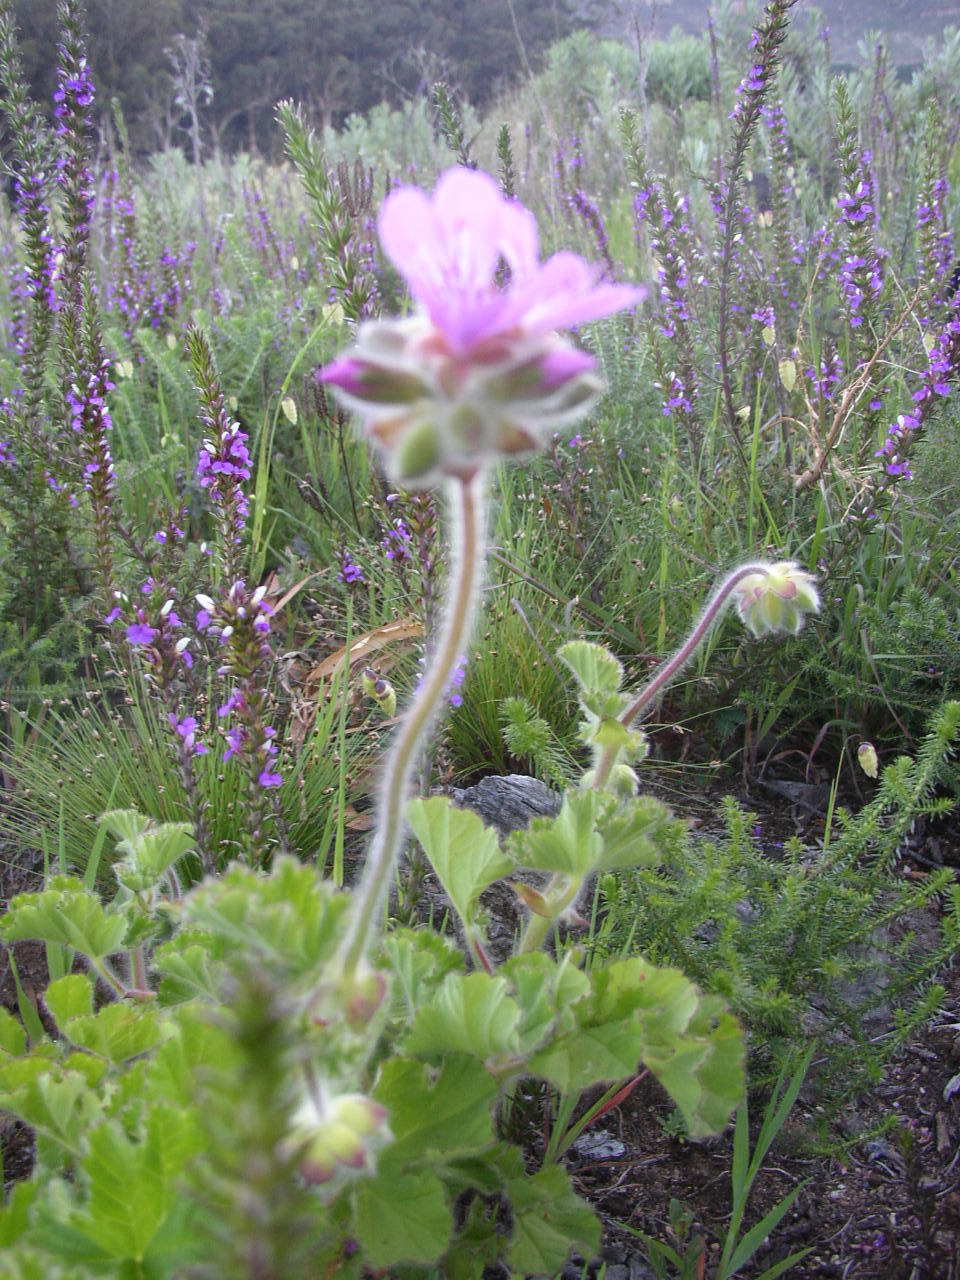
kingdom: Plantae
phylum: Tracheophyta
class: Magnoliopsida
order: Geraniales
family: Geraniaceae
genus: Pelargonium
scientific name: Pelargonium capitatum
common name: Rose scented geranium
